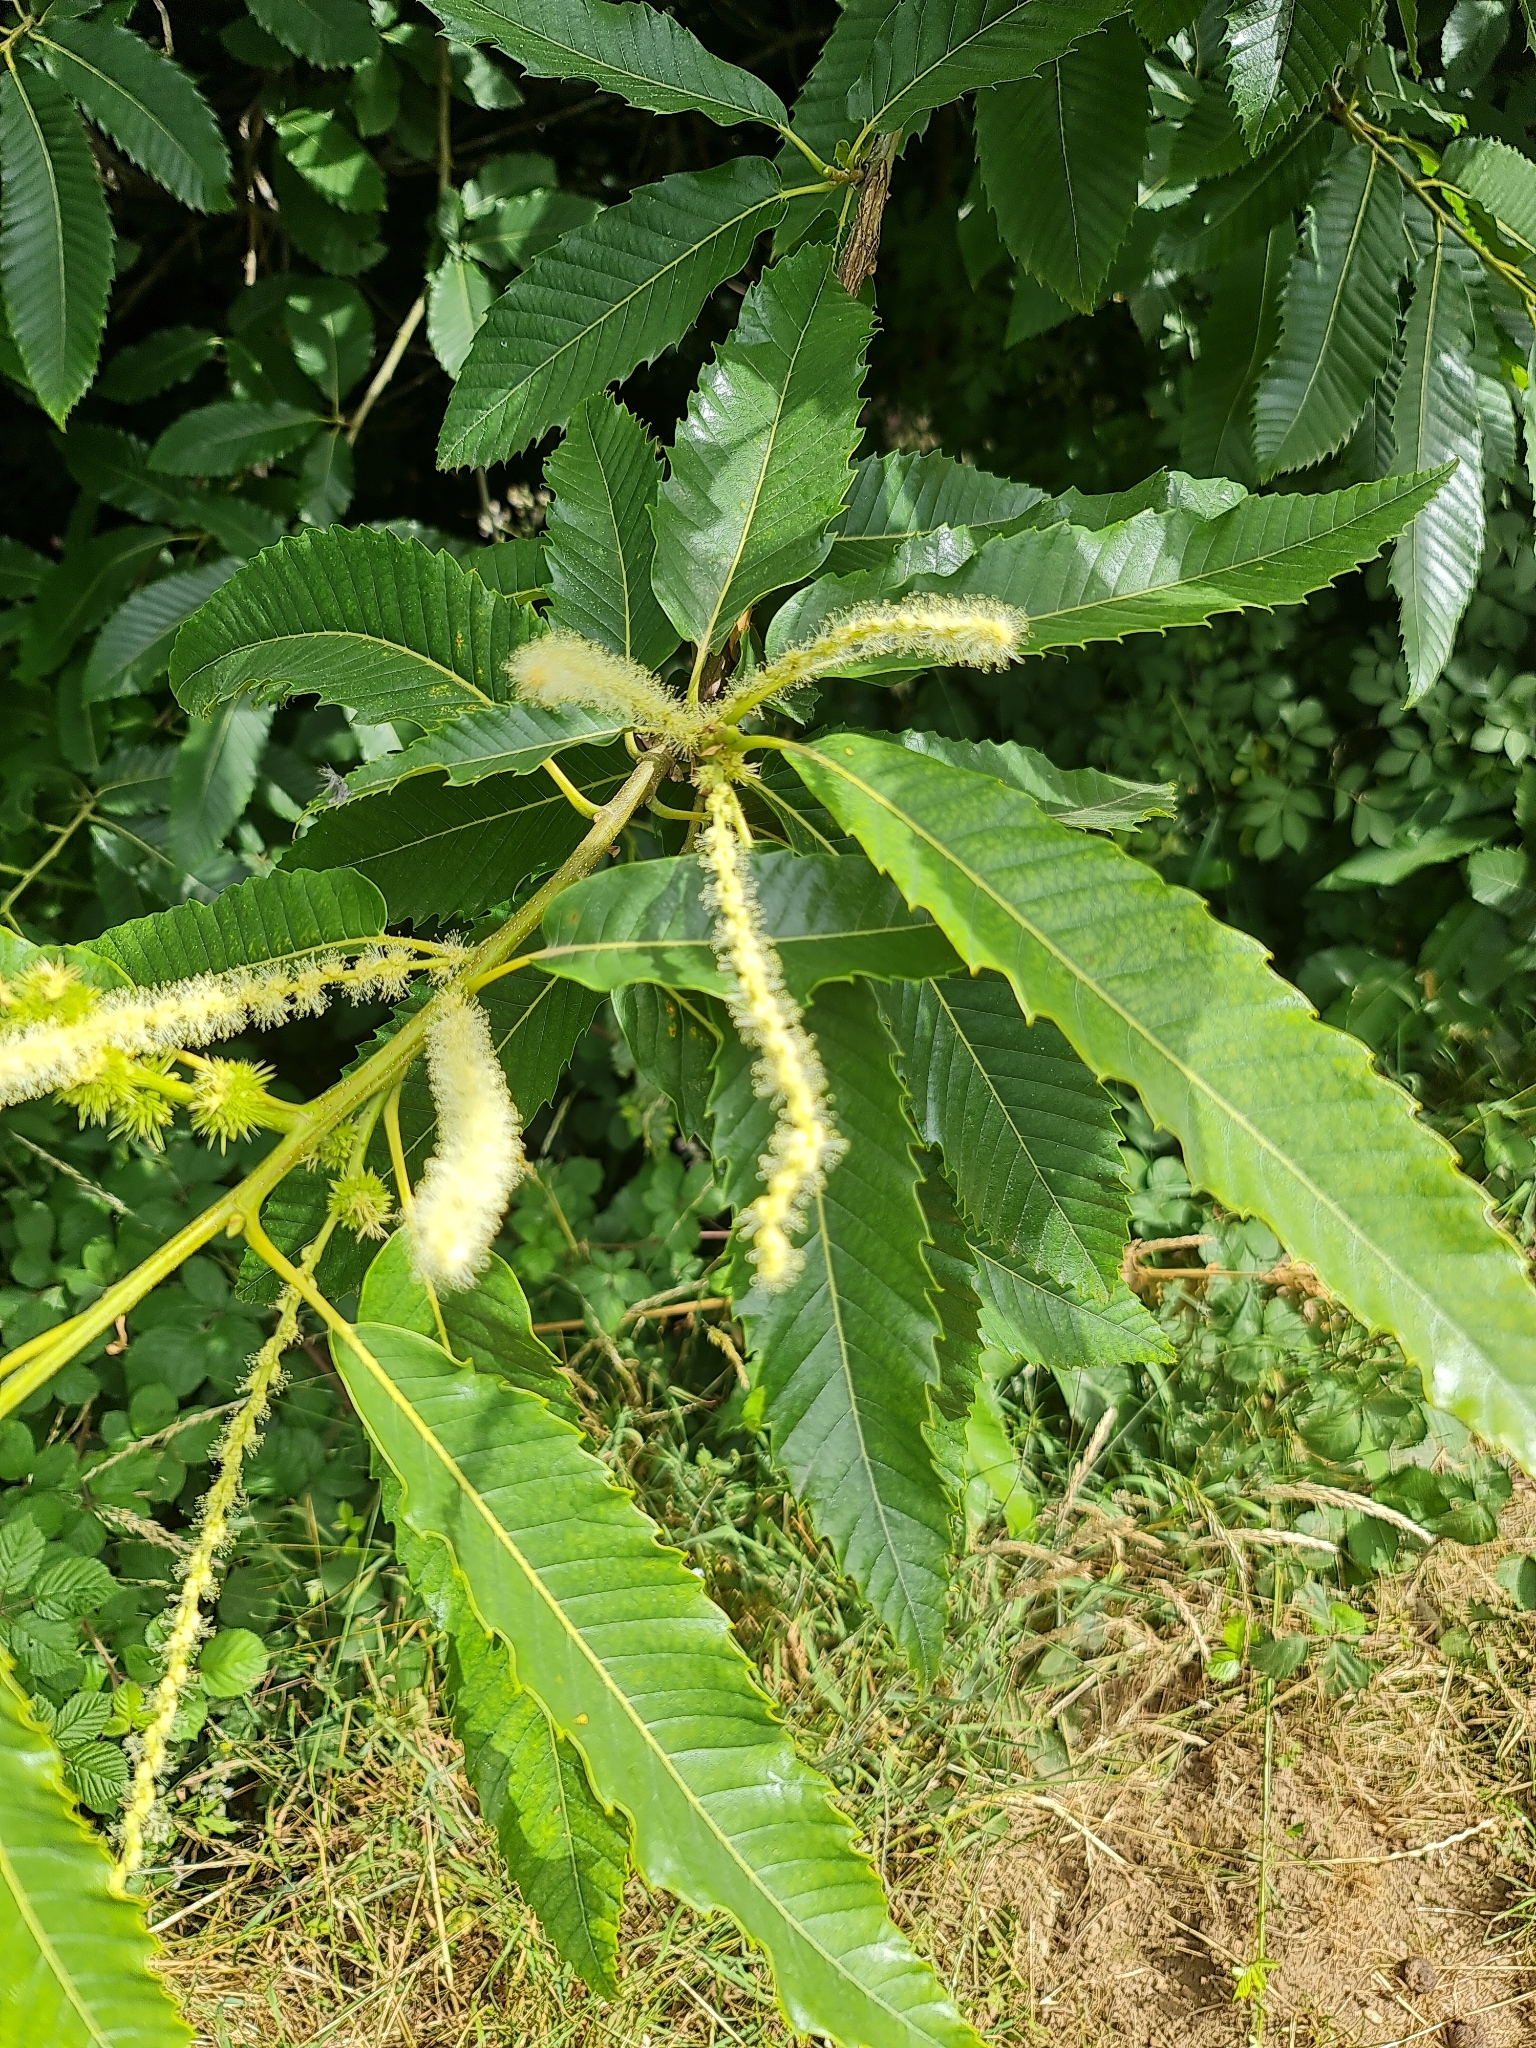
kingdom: Plantae
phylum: Tracheophyta
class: Magnoliopsida
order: Fagales
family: Fagaceae
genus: Castanea
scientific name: Castanea sativa
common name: Sweet chestnut
